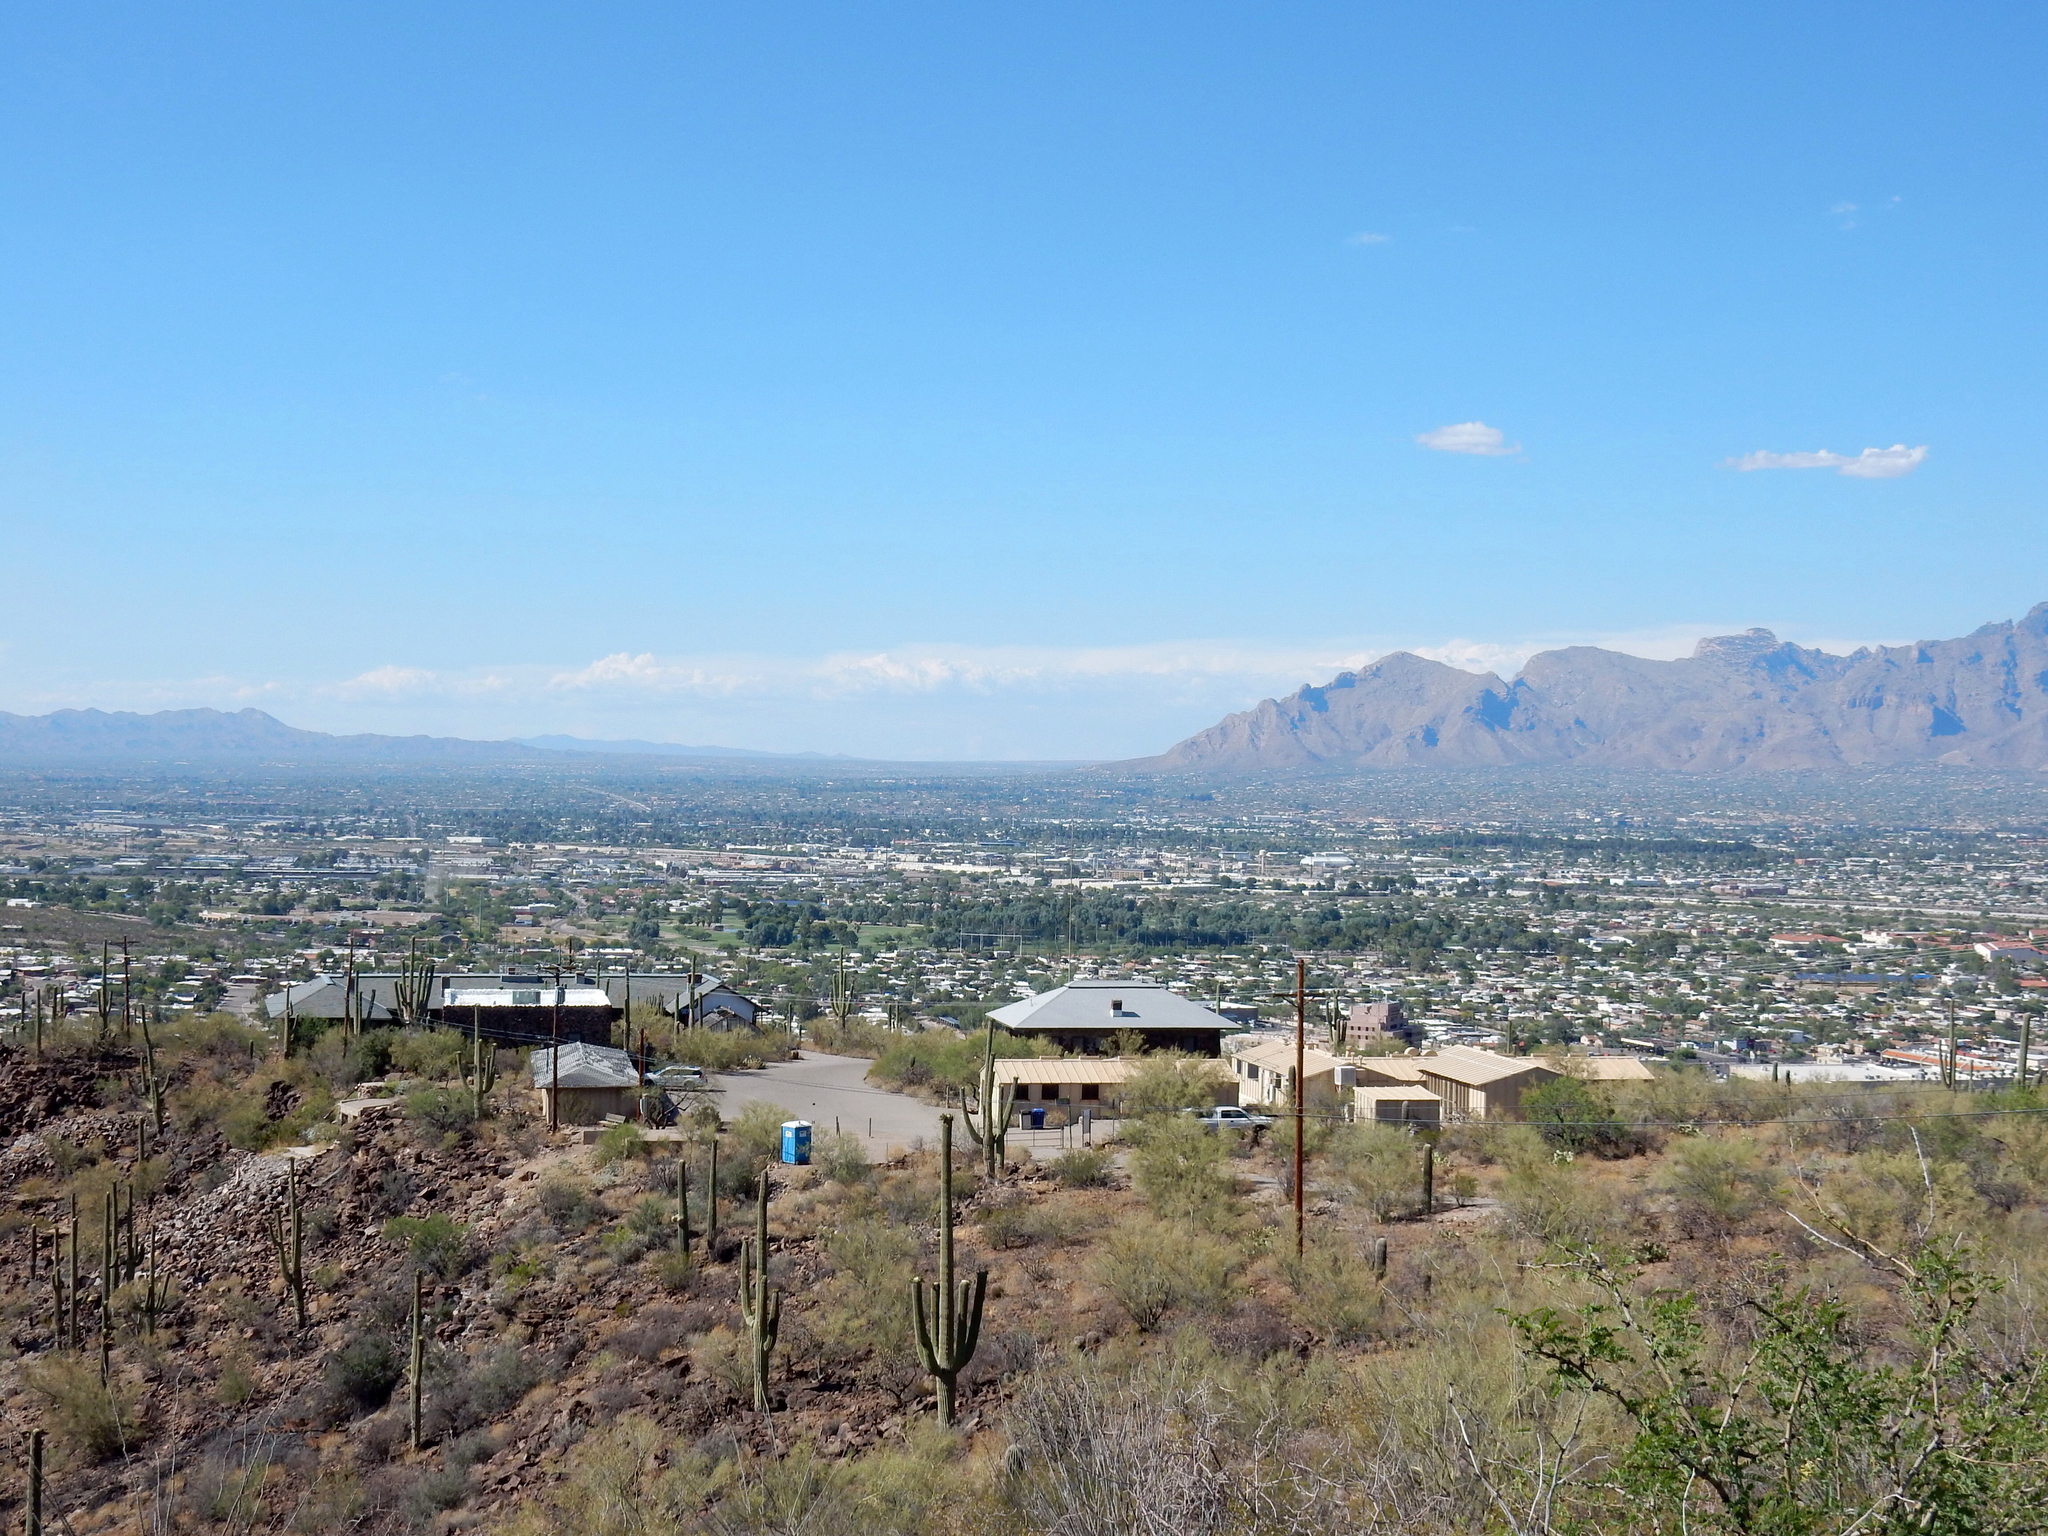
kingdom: Plantae
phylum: Tracheophyta
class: Magnoliopsida
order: Caryophyllales
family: Cactaceae
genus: Carnegiea
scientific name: Carnegiea gigantea
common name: Saguaro
